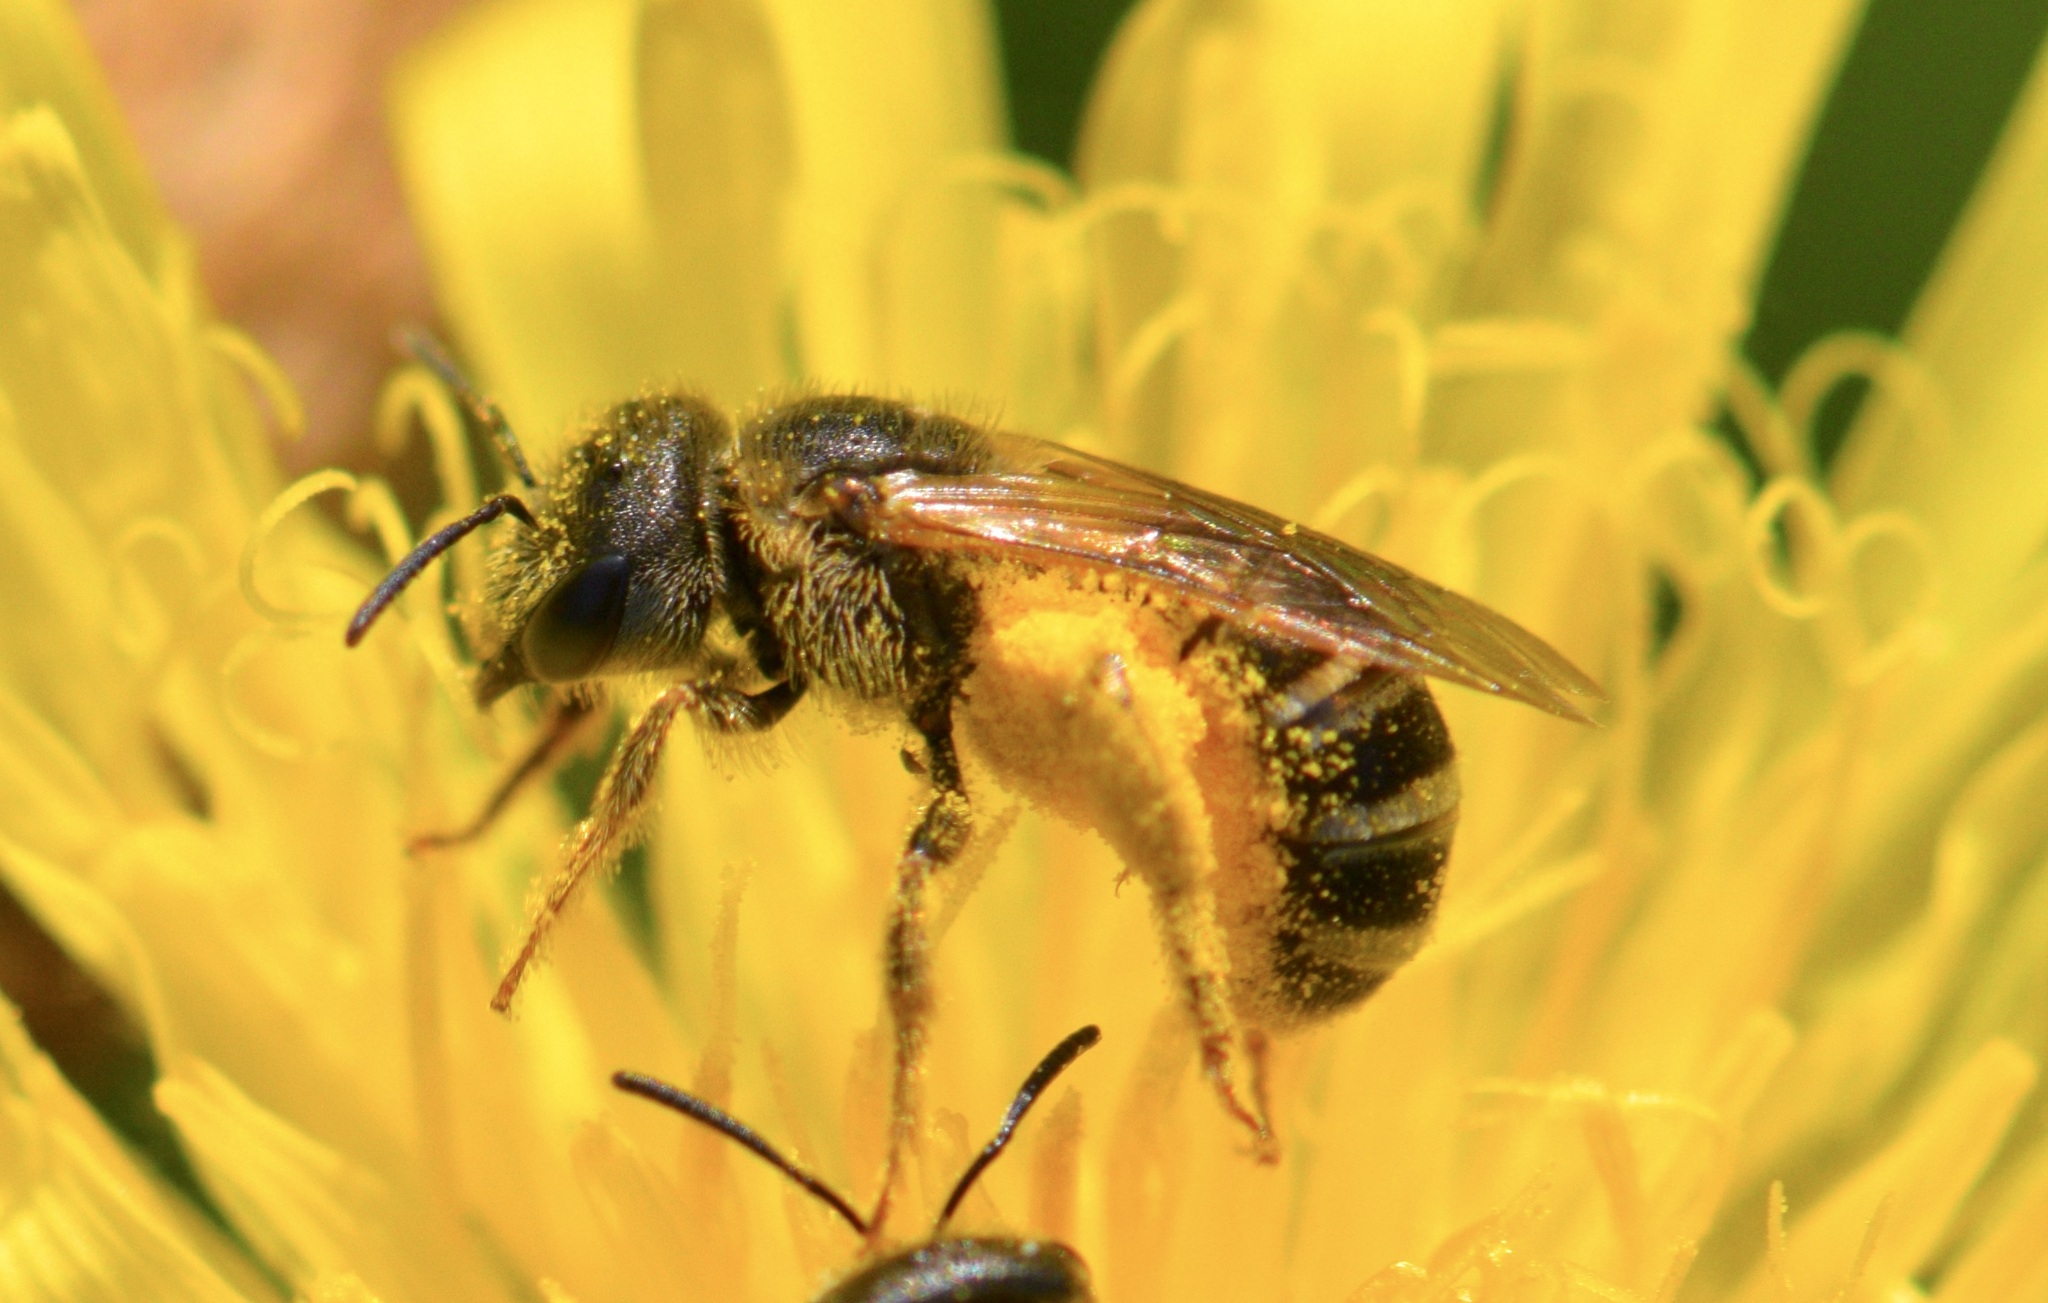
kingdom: Animalia
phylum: Arthropoda
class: Insecta
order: Hymenoptera
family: Halictidae
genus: Halictus
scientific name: Halictus ligatus
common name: Ligated furrow bee
